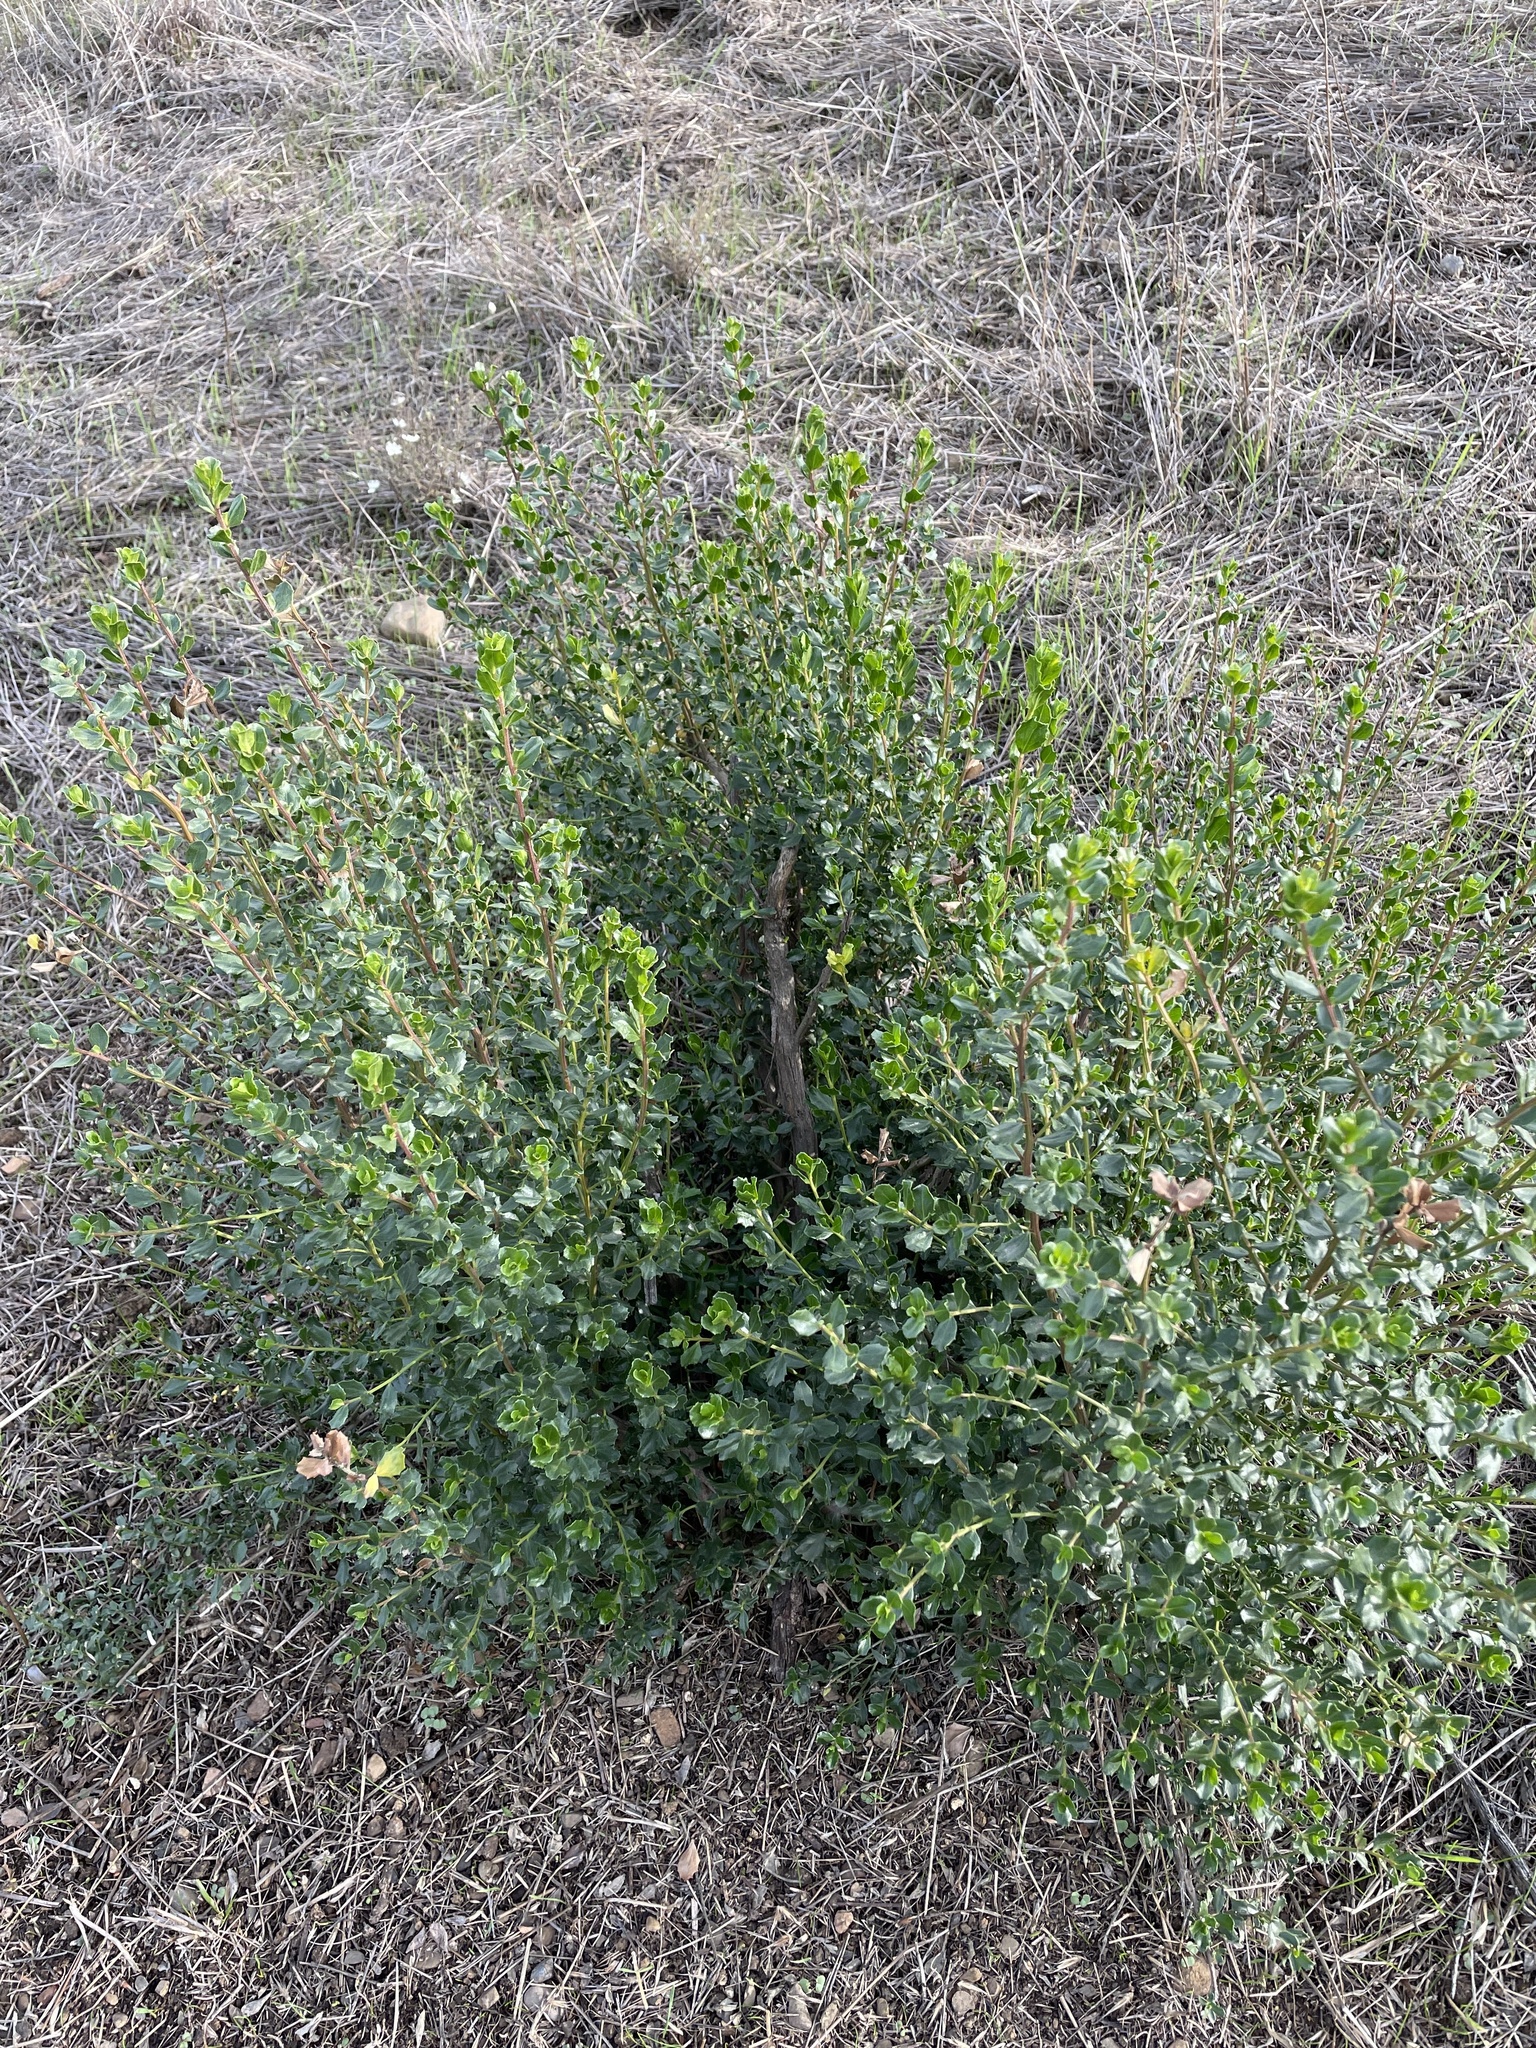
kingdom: Plantae
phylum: Tracheophyta
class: Magnoliopsida
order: Asterales
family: Asteraceae
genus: Baccharis
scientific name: Baccharis pilularis
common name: Coyotebrush
